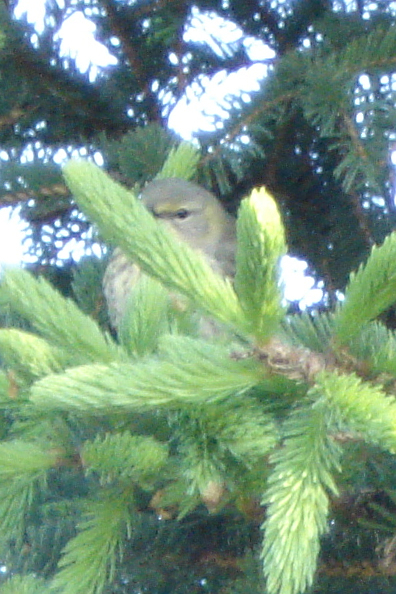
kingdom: Animalia
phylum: Chordata
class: Aves
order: Passeriformes
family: Parulidae
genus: Setophaga
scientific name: Setophaga tigrina
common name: Cape may warbler
